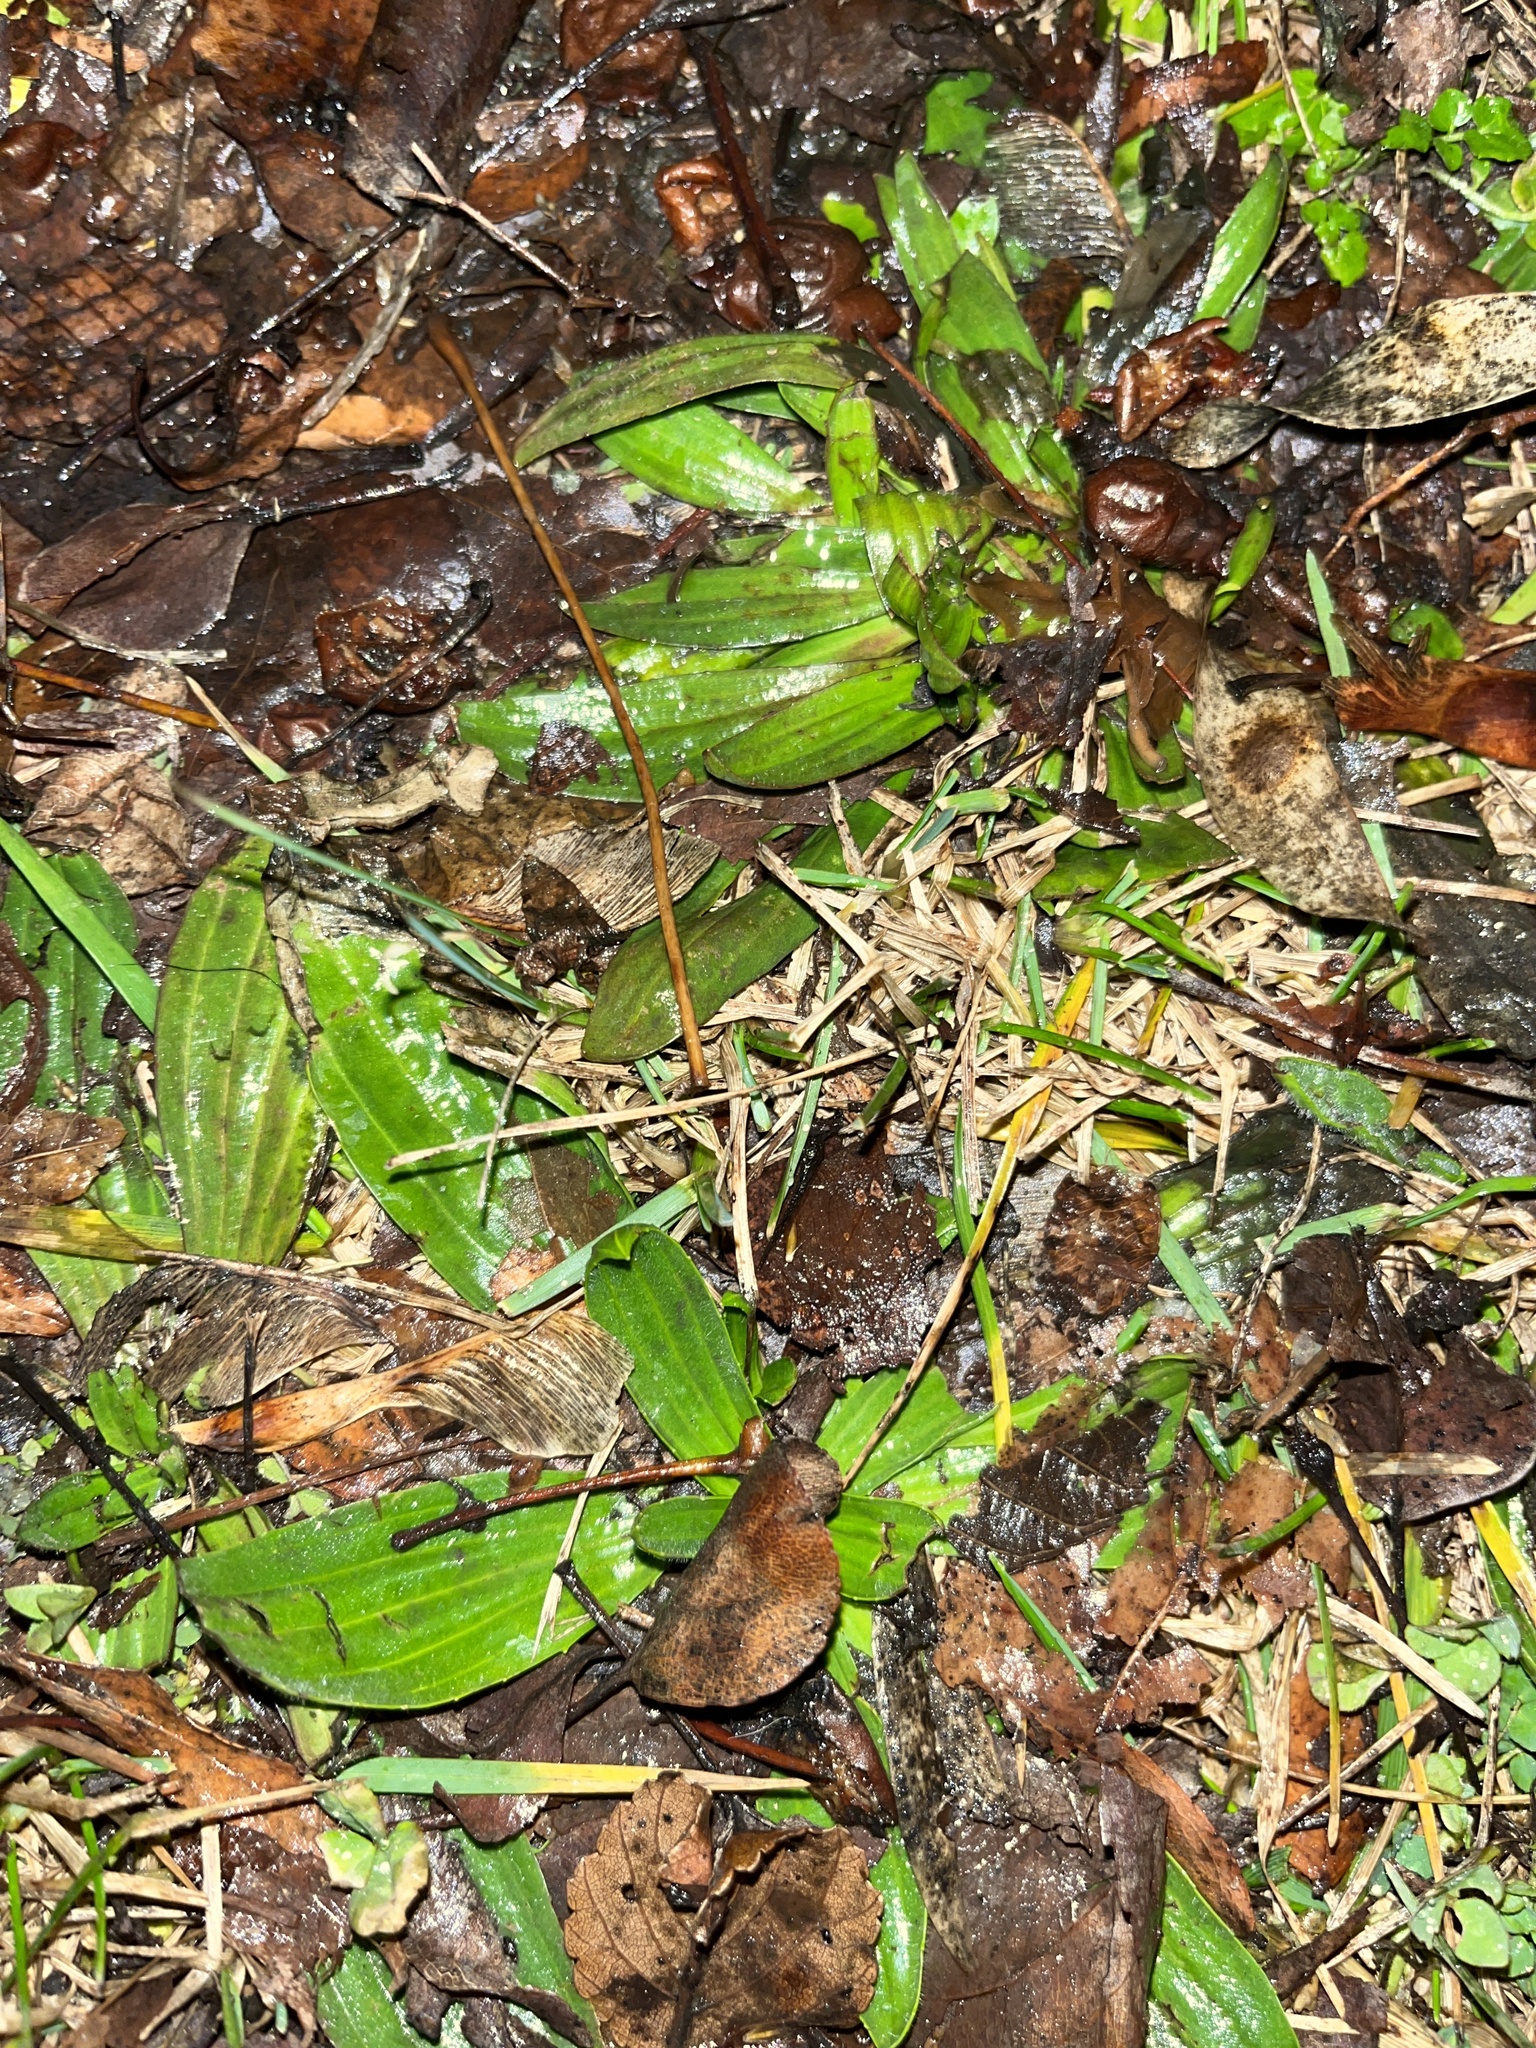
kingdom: Plantae
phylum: Tracheophyta
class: Magnoliopsida
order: Lamiales
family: Plantaginaceae
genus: Plantago
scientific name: Plantago lanceolata
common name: Ribwort plantain
